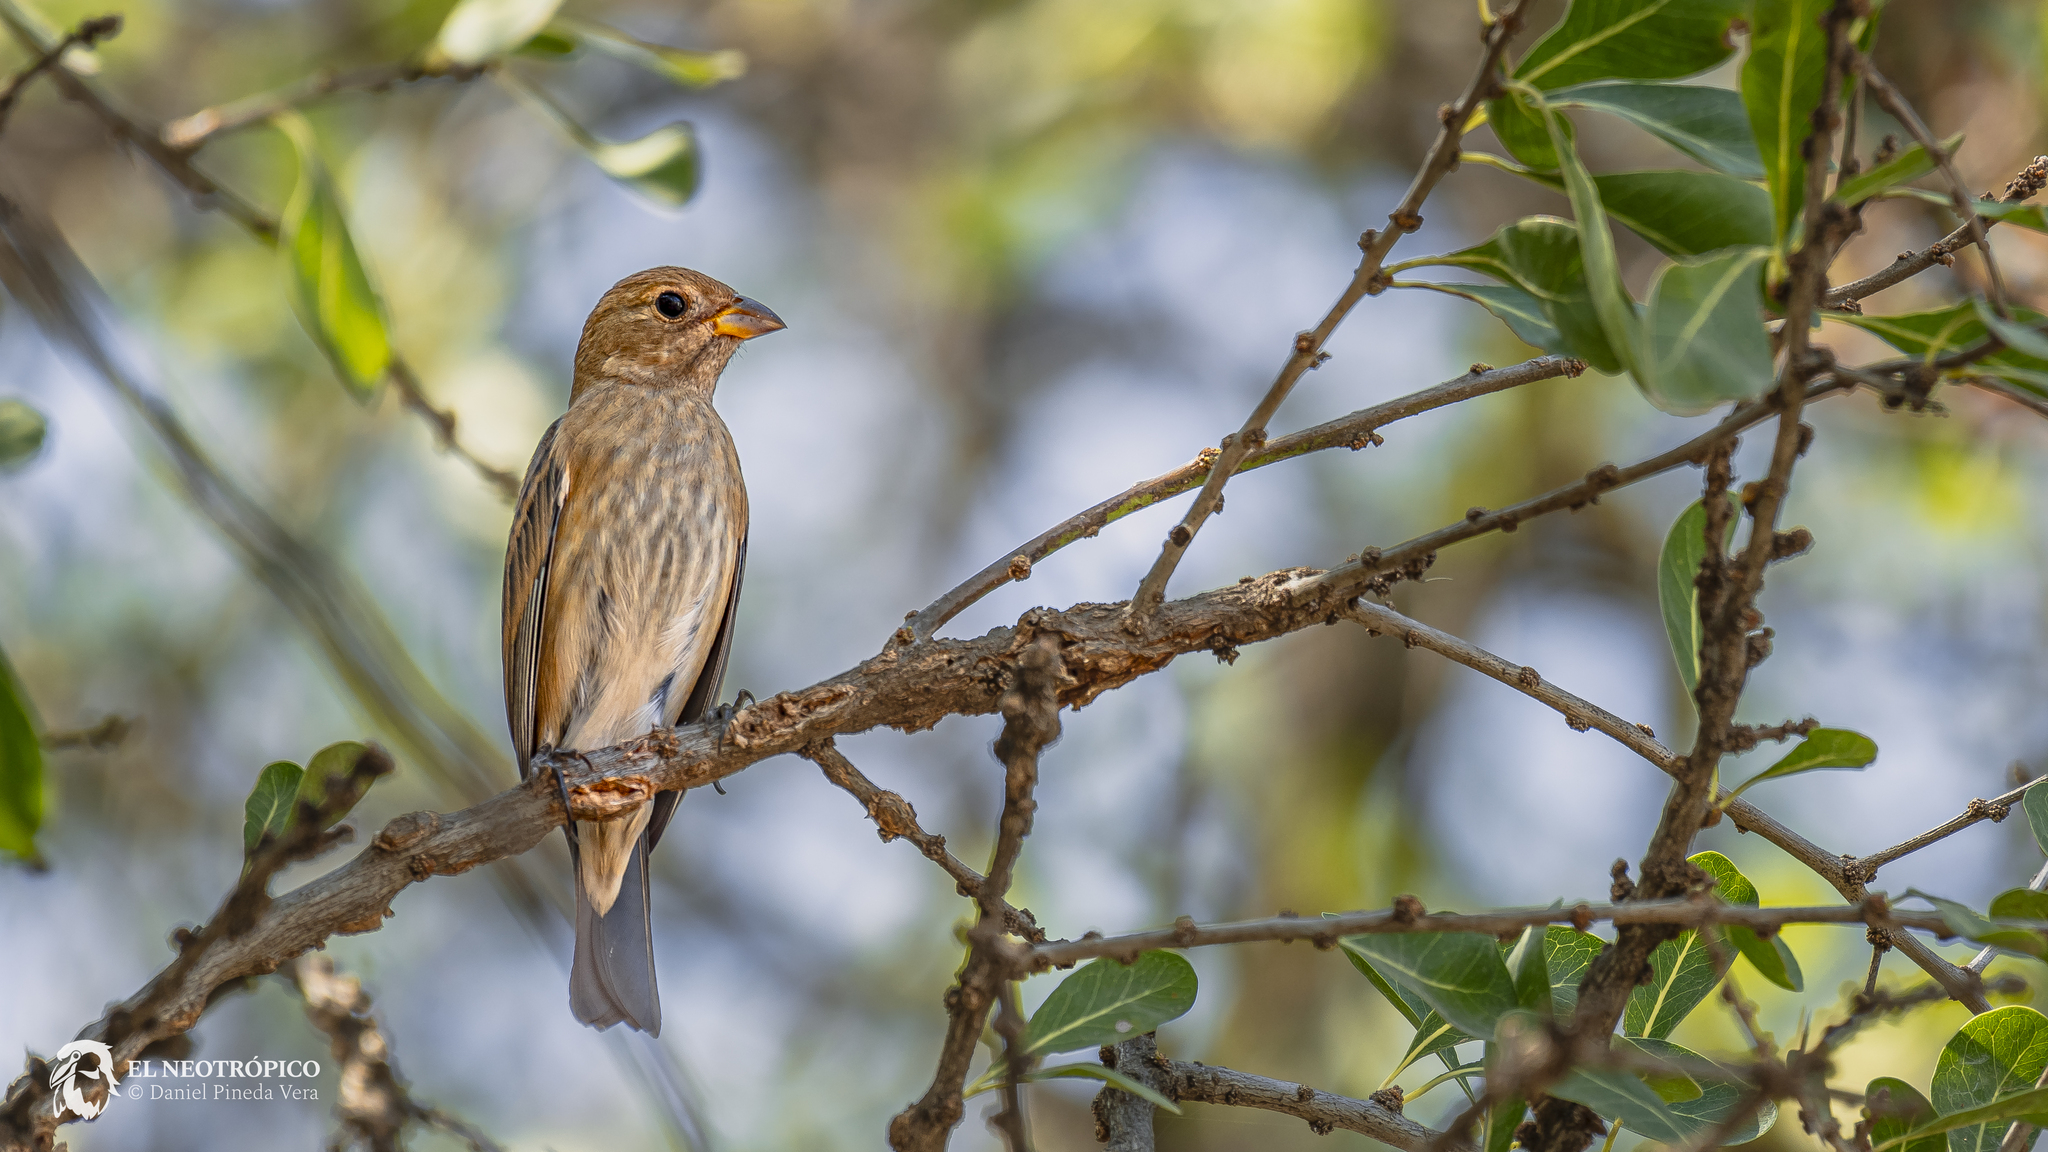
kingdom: Animalia
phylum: Chordata
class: Aves
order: Passeriformes
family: Cardinalidae
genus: Passerina
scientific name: Passerina cyanea
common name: Indigo bunting
